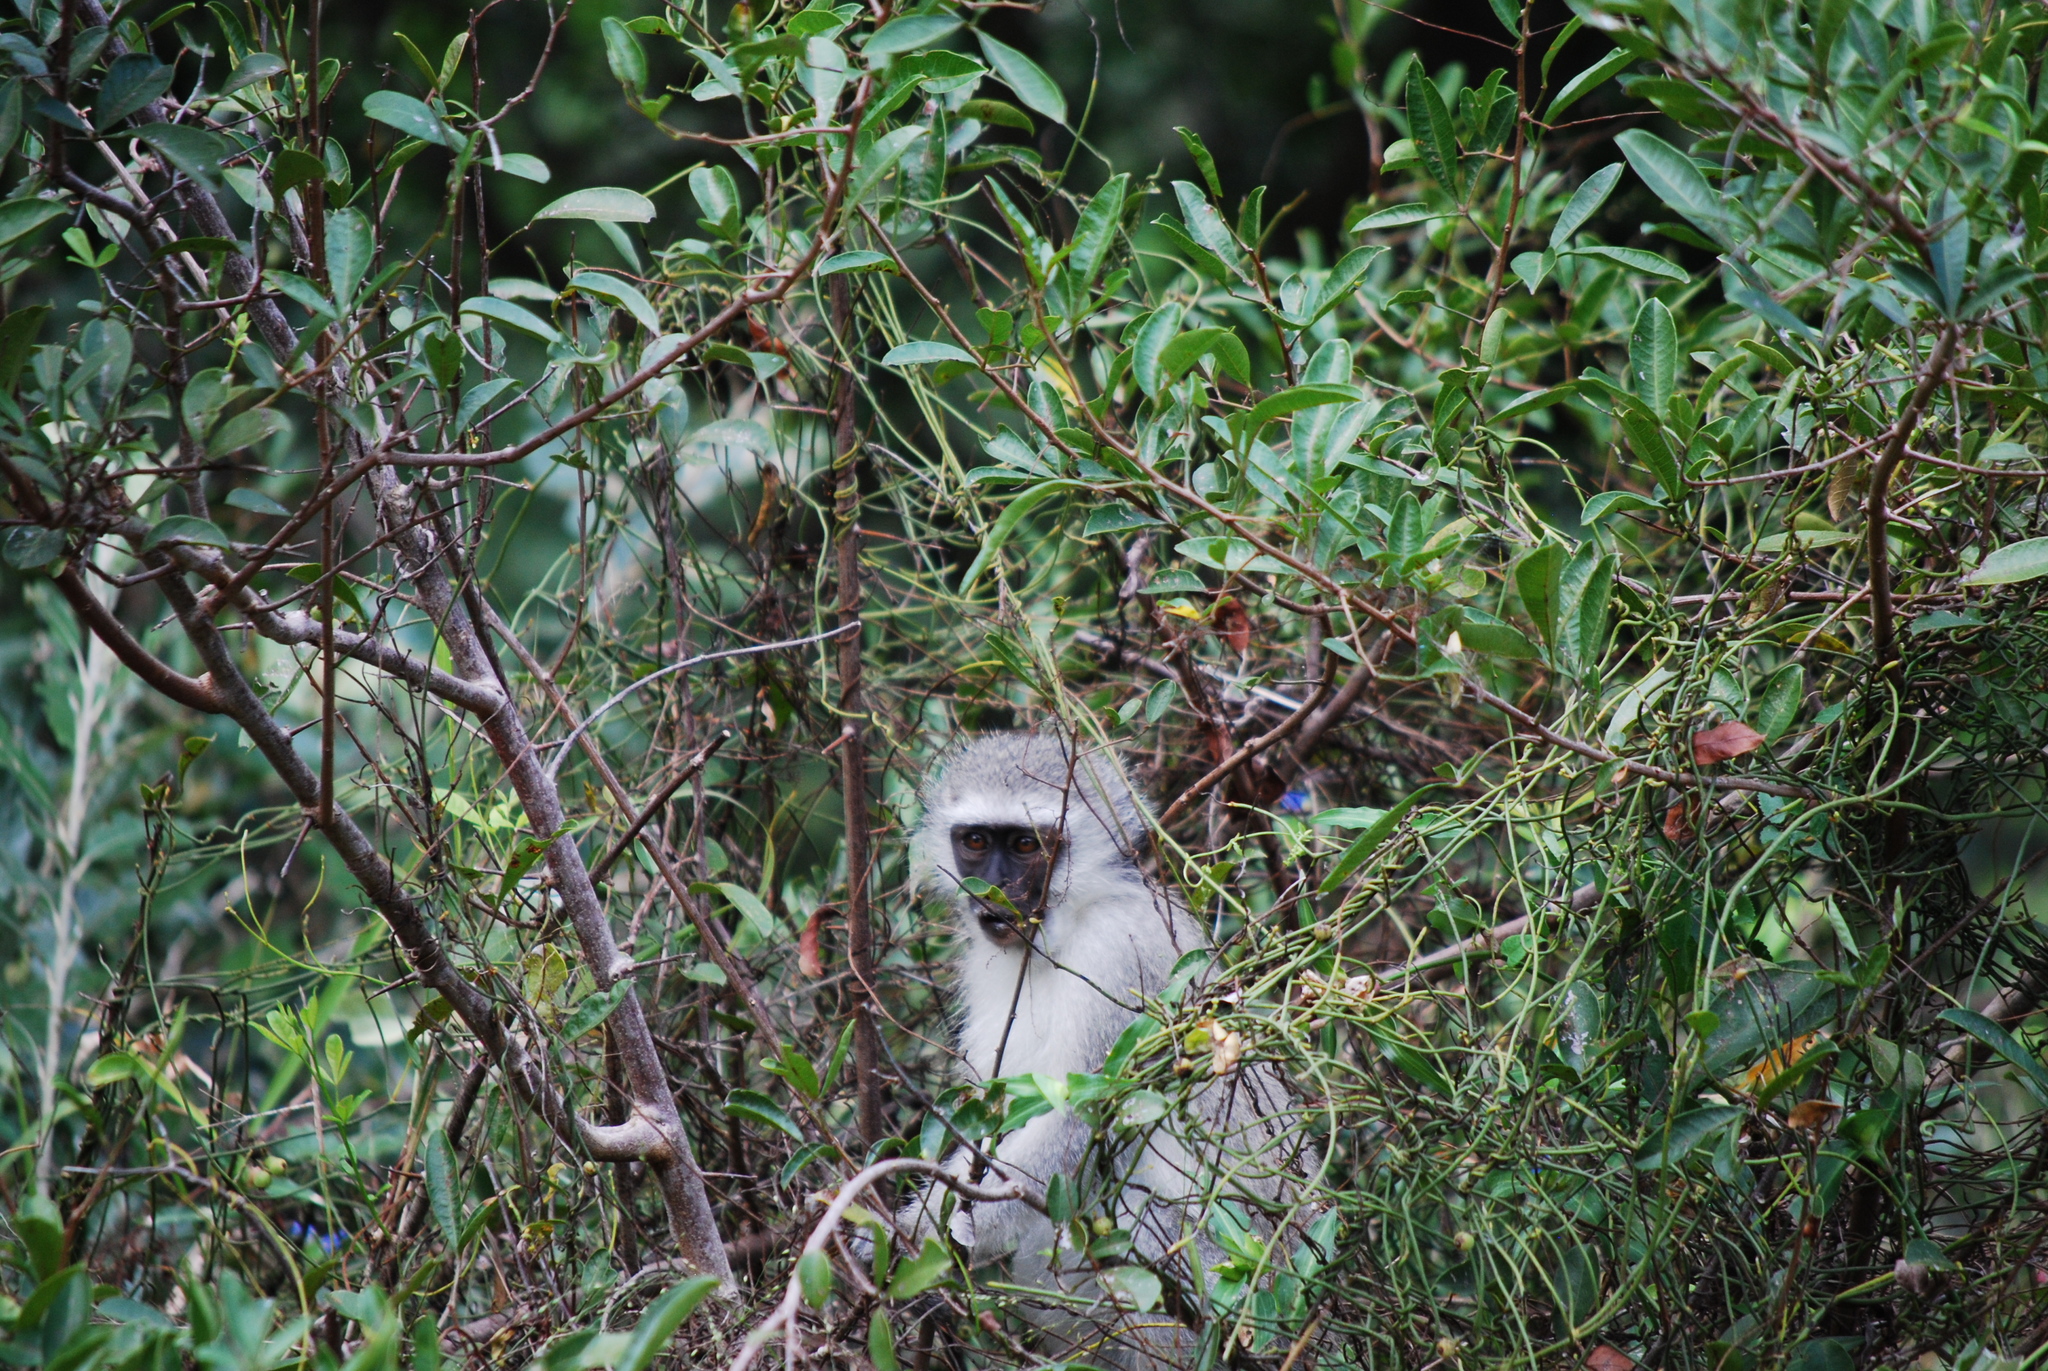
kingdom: Animalia
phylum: Chordata
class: Mammalia
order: Primates
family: Cercopithecidae
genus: Chlorocebus
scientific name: Chlorocebus pygerythrus
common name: Vervet monkey
